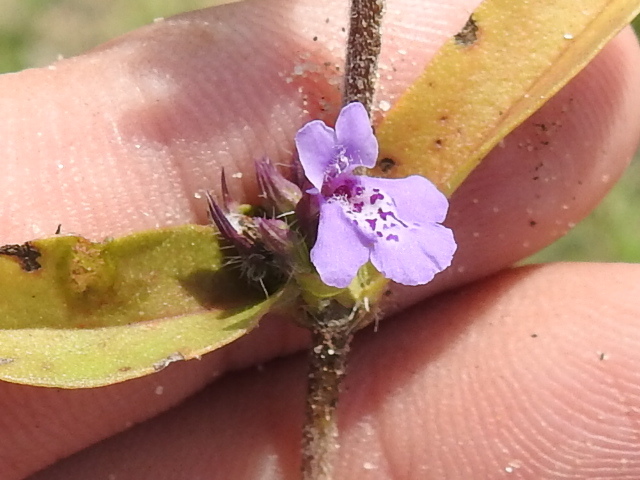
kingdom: Plantae
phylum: Tracheophyta
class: Magnoliopsida
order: Lamiales
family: Lamiaceae
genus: Rhododon
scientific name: Rhododon ciliatus
